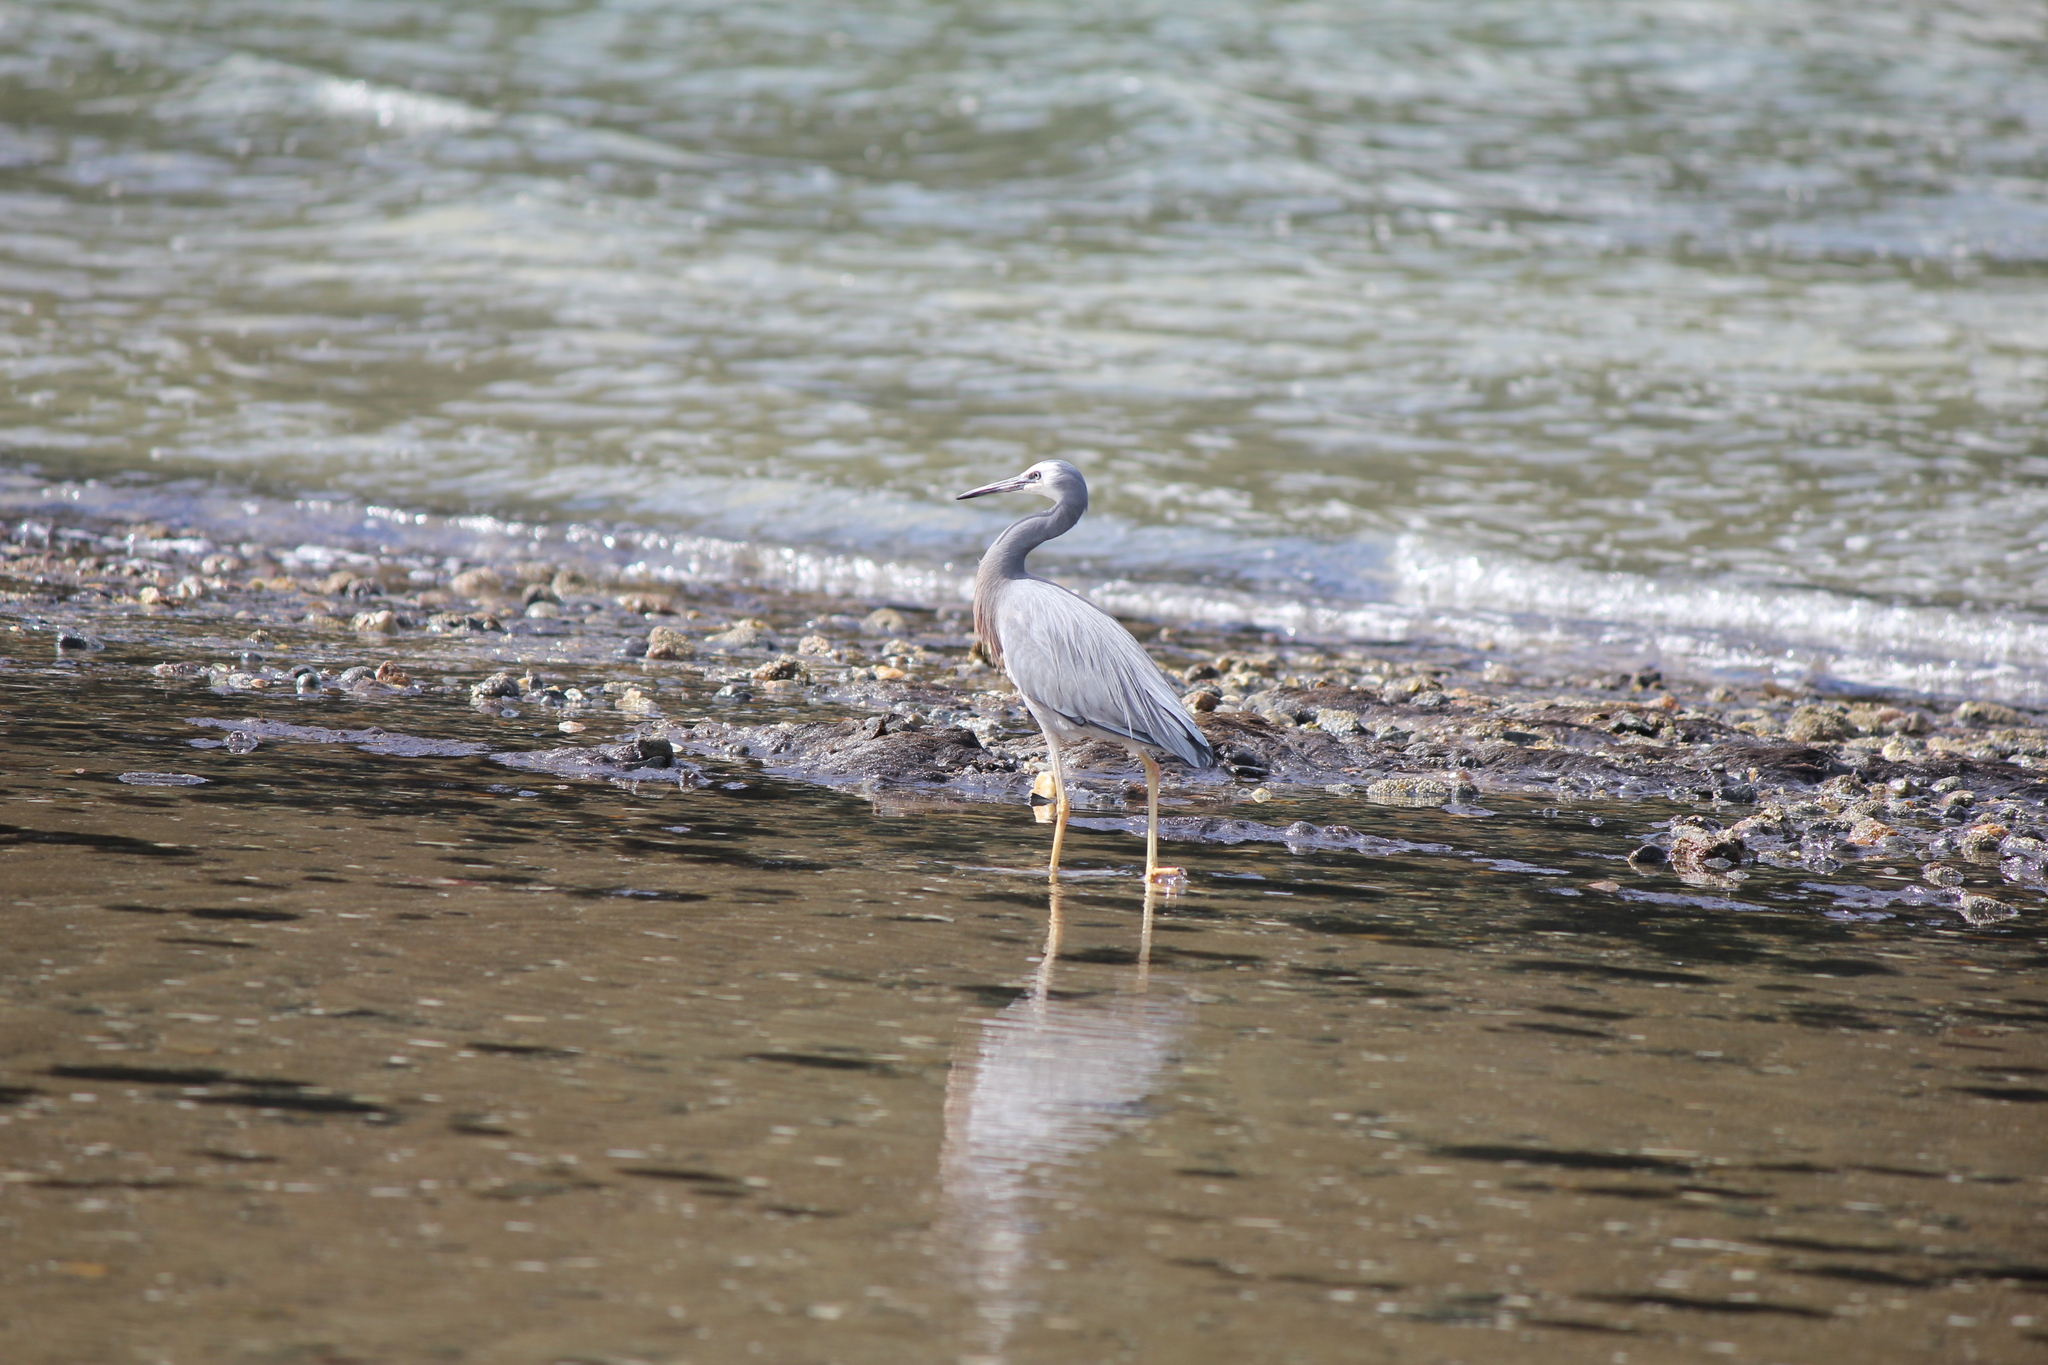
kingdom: Animalia
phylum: Chordata
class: Aves
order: Pelecaniformes
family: Ardeidae
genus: Egretta
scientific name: Egretta novaehollandiae
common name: White-faced heron
